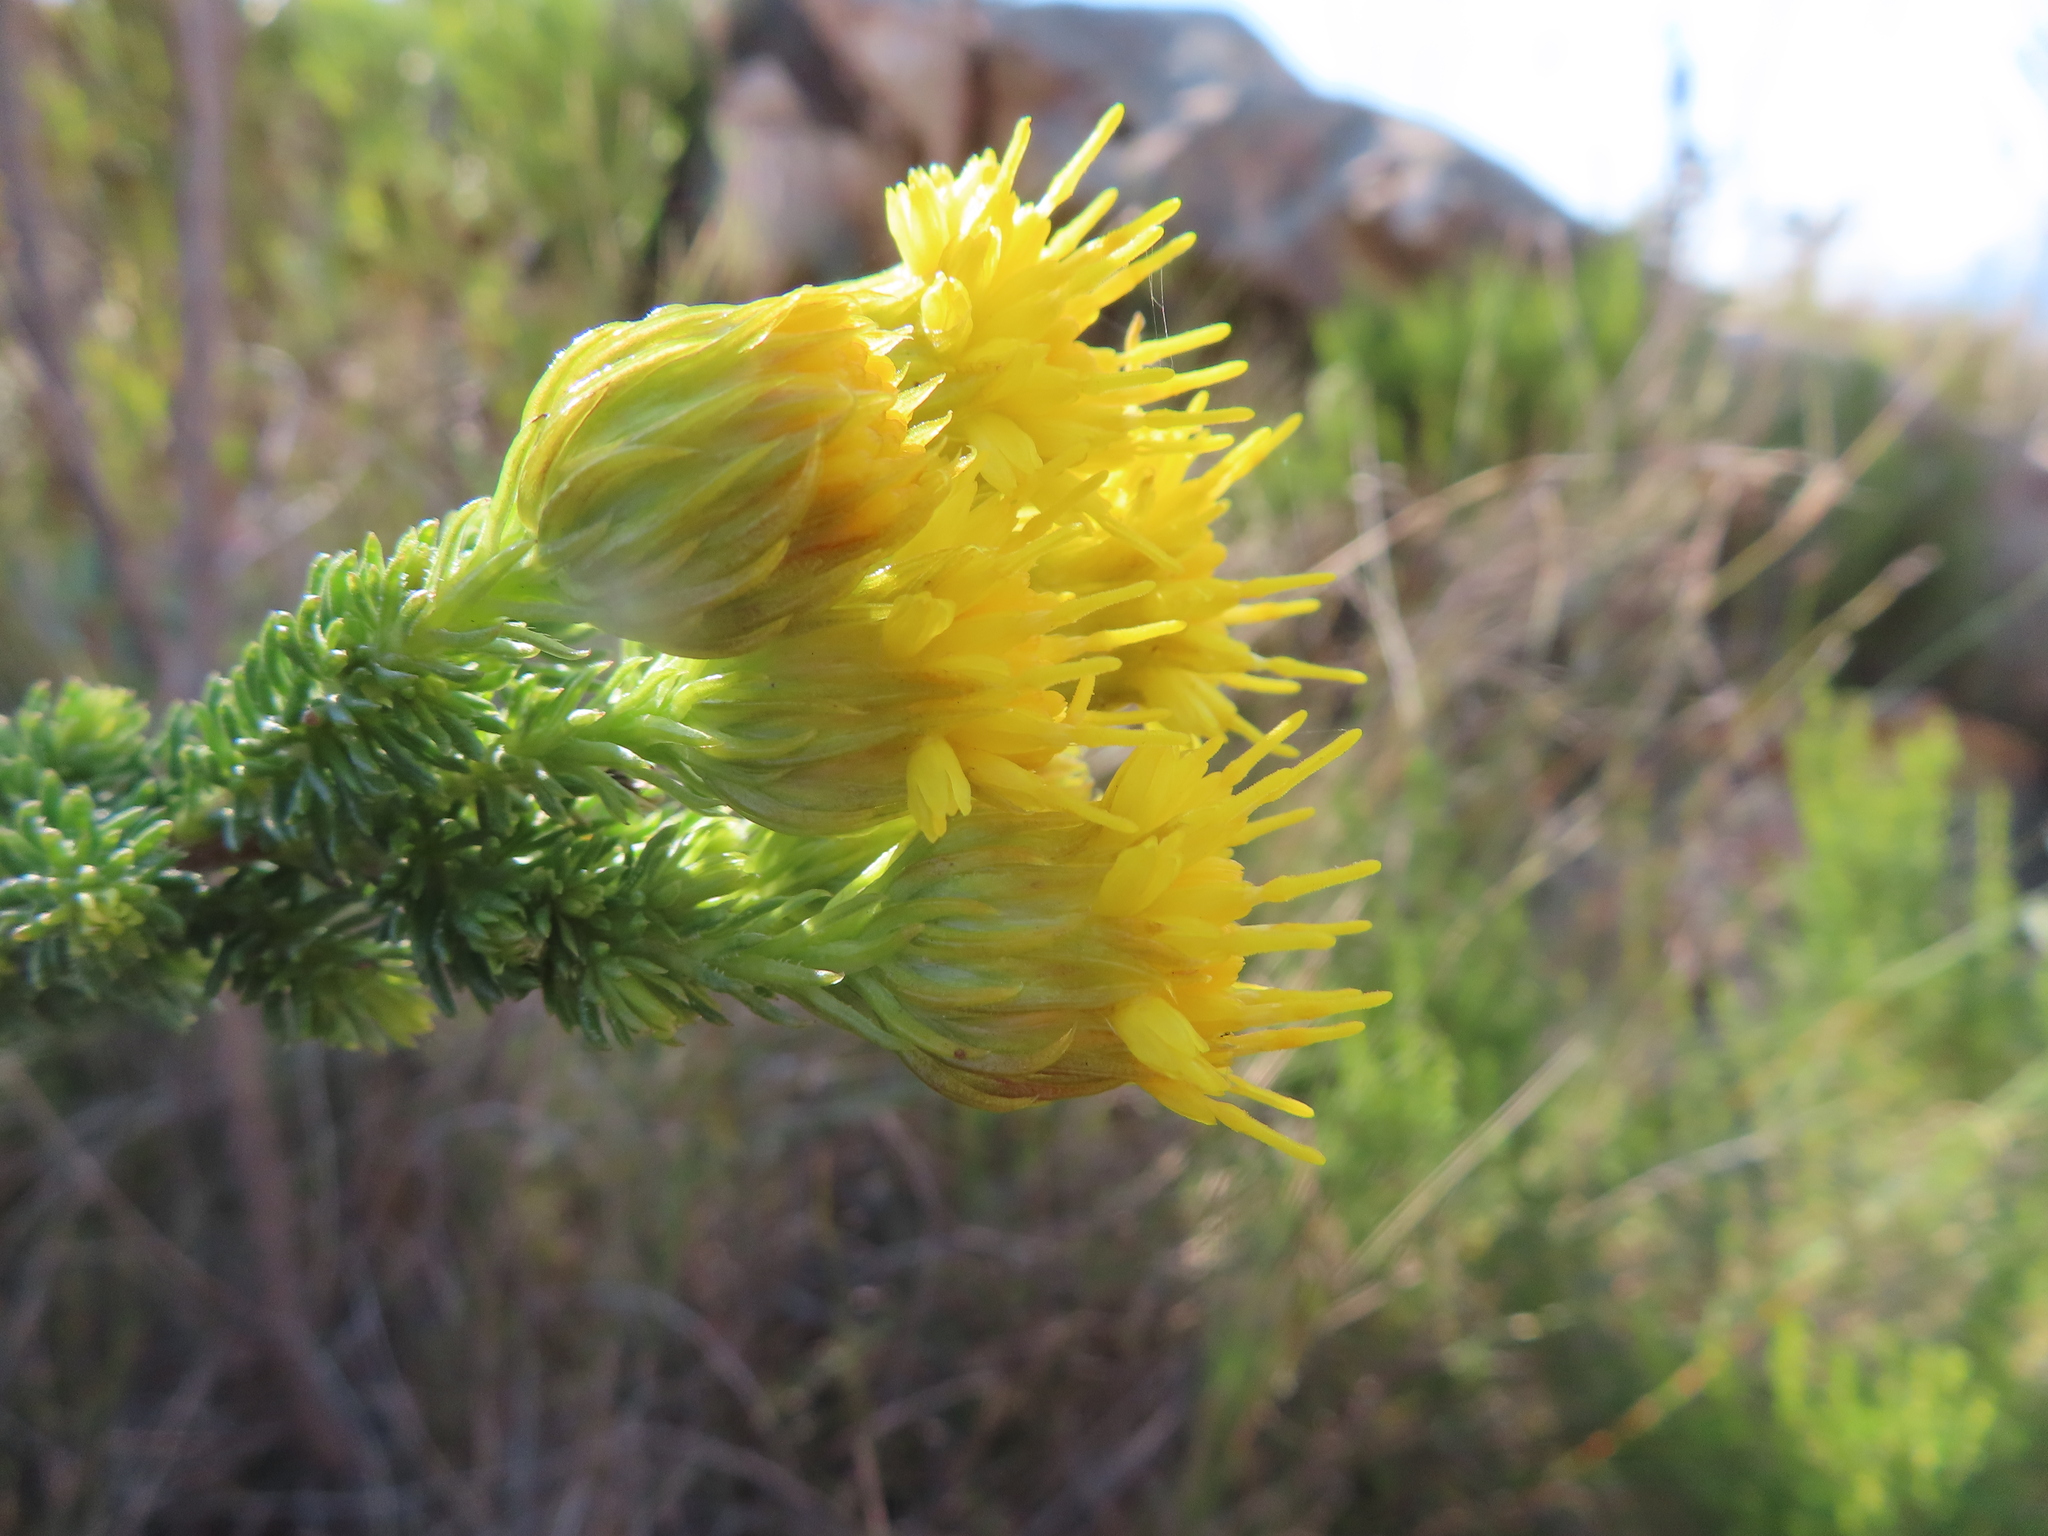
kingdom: Plantae
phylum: Tracheophyta
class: Magnoliopsida
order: Asterales
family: Asteraceae
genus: Pteronia
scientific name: Pteronia camphorata
